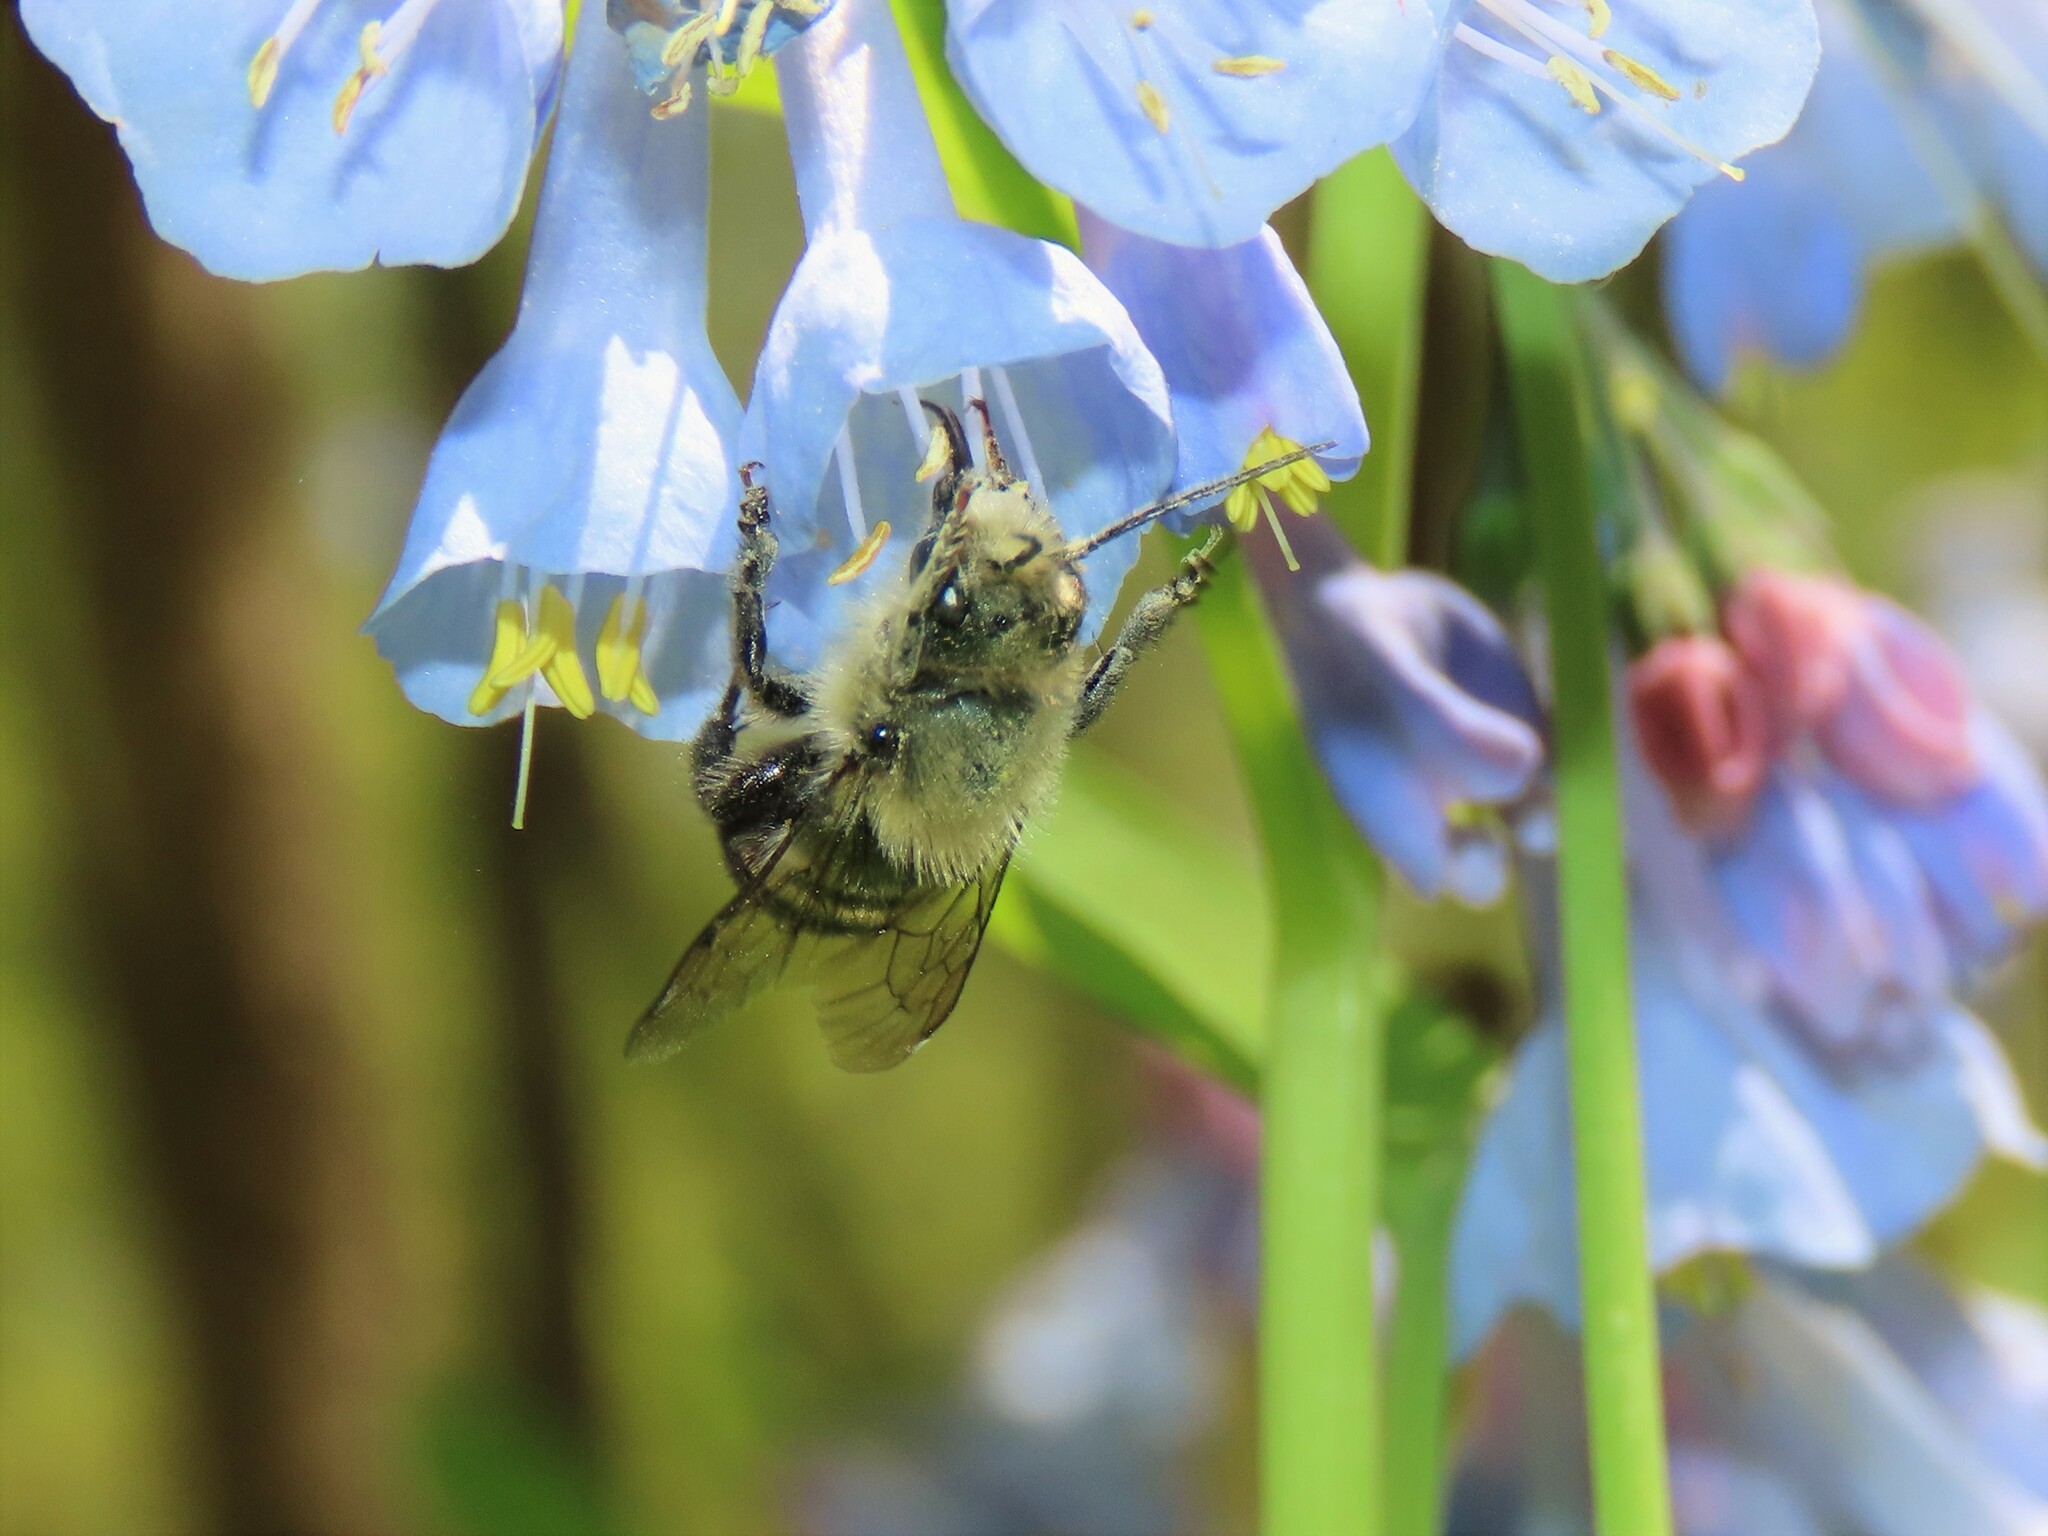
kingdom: Animalia
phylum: Arthropoda
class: Insecta
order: Hymenoptera
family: Megachilidae
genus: Osmia
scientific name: Osmia bucephala
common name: Bufflehead mason bee
